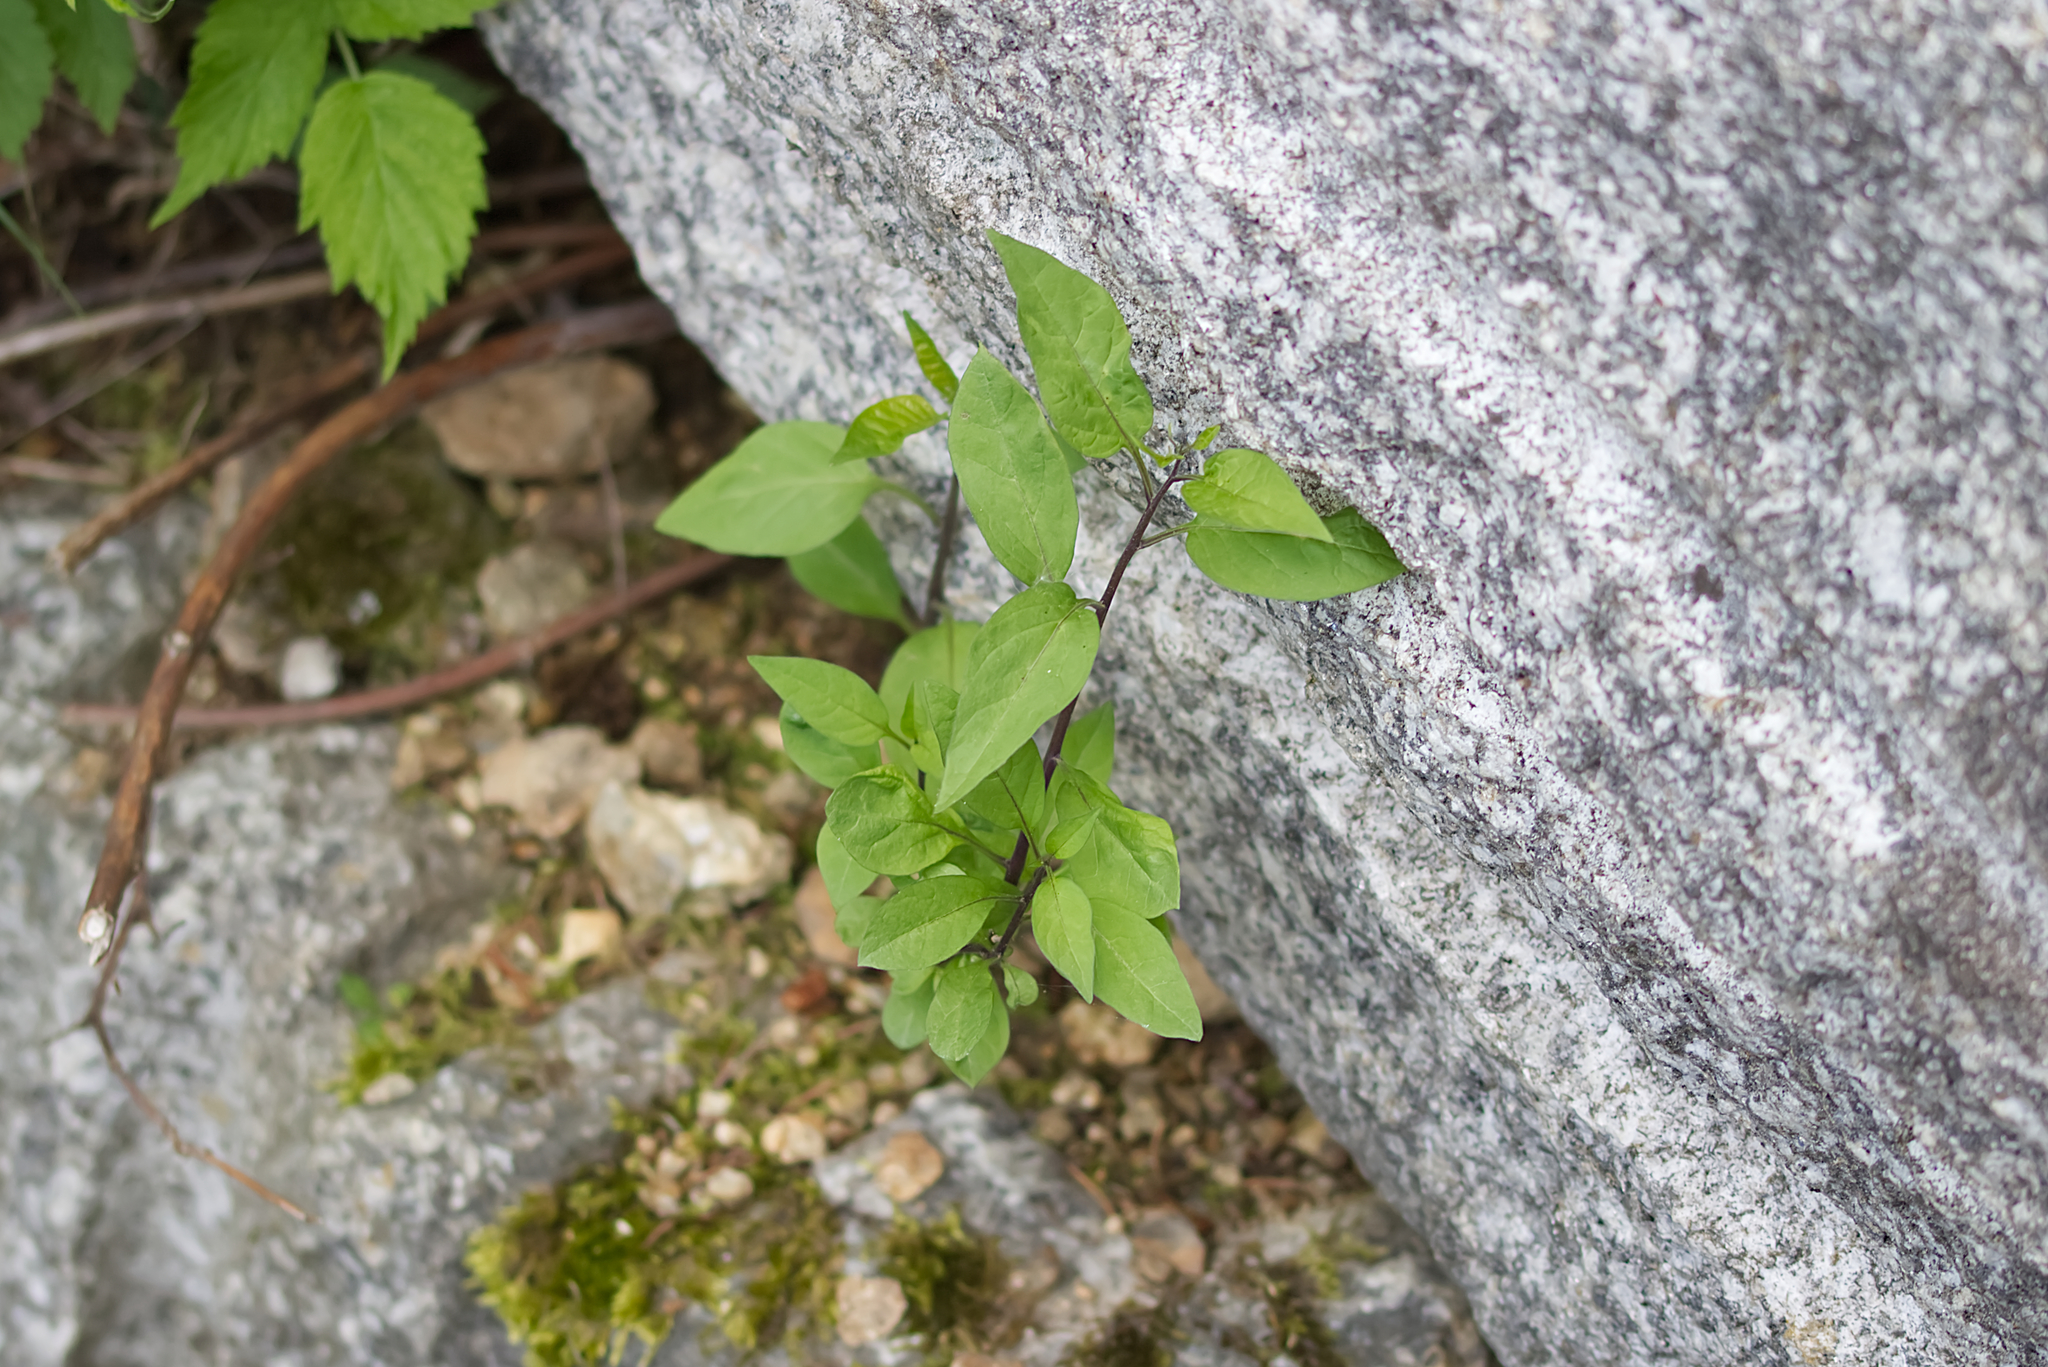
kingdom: Plantae
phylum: Tracheophyta
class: Magnoliopsida
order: Solanales
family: Solanaceae
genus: Solanum
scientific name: Solanum dulcamara
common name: Climbing nightshade
